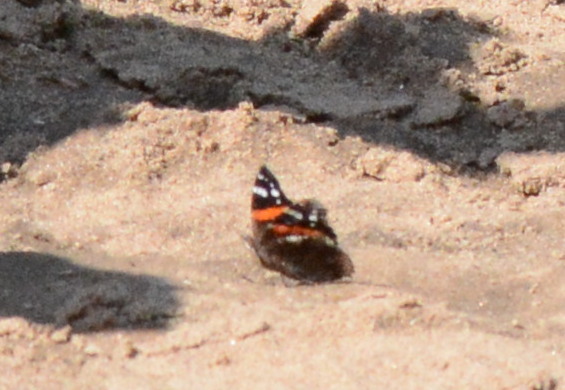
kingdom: Animalia
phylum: Arthropoda
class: Insecta
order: Lepidoptera
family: Nymphalidae
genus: Vanessa
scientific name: Vanessa atalanta
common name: Red admiral
